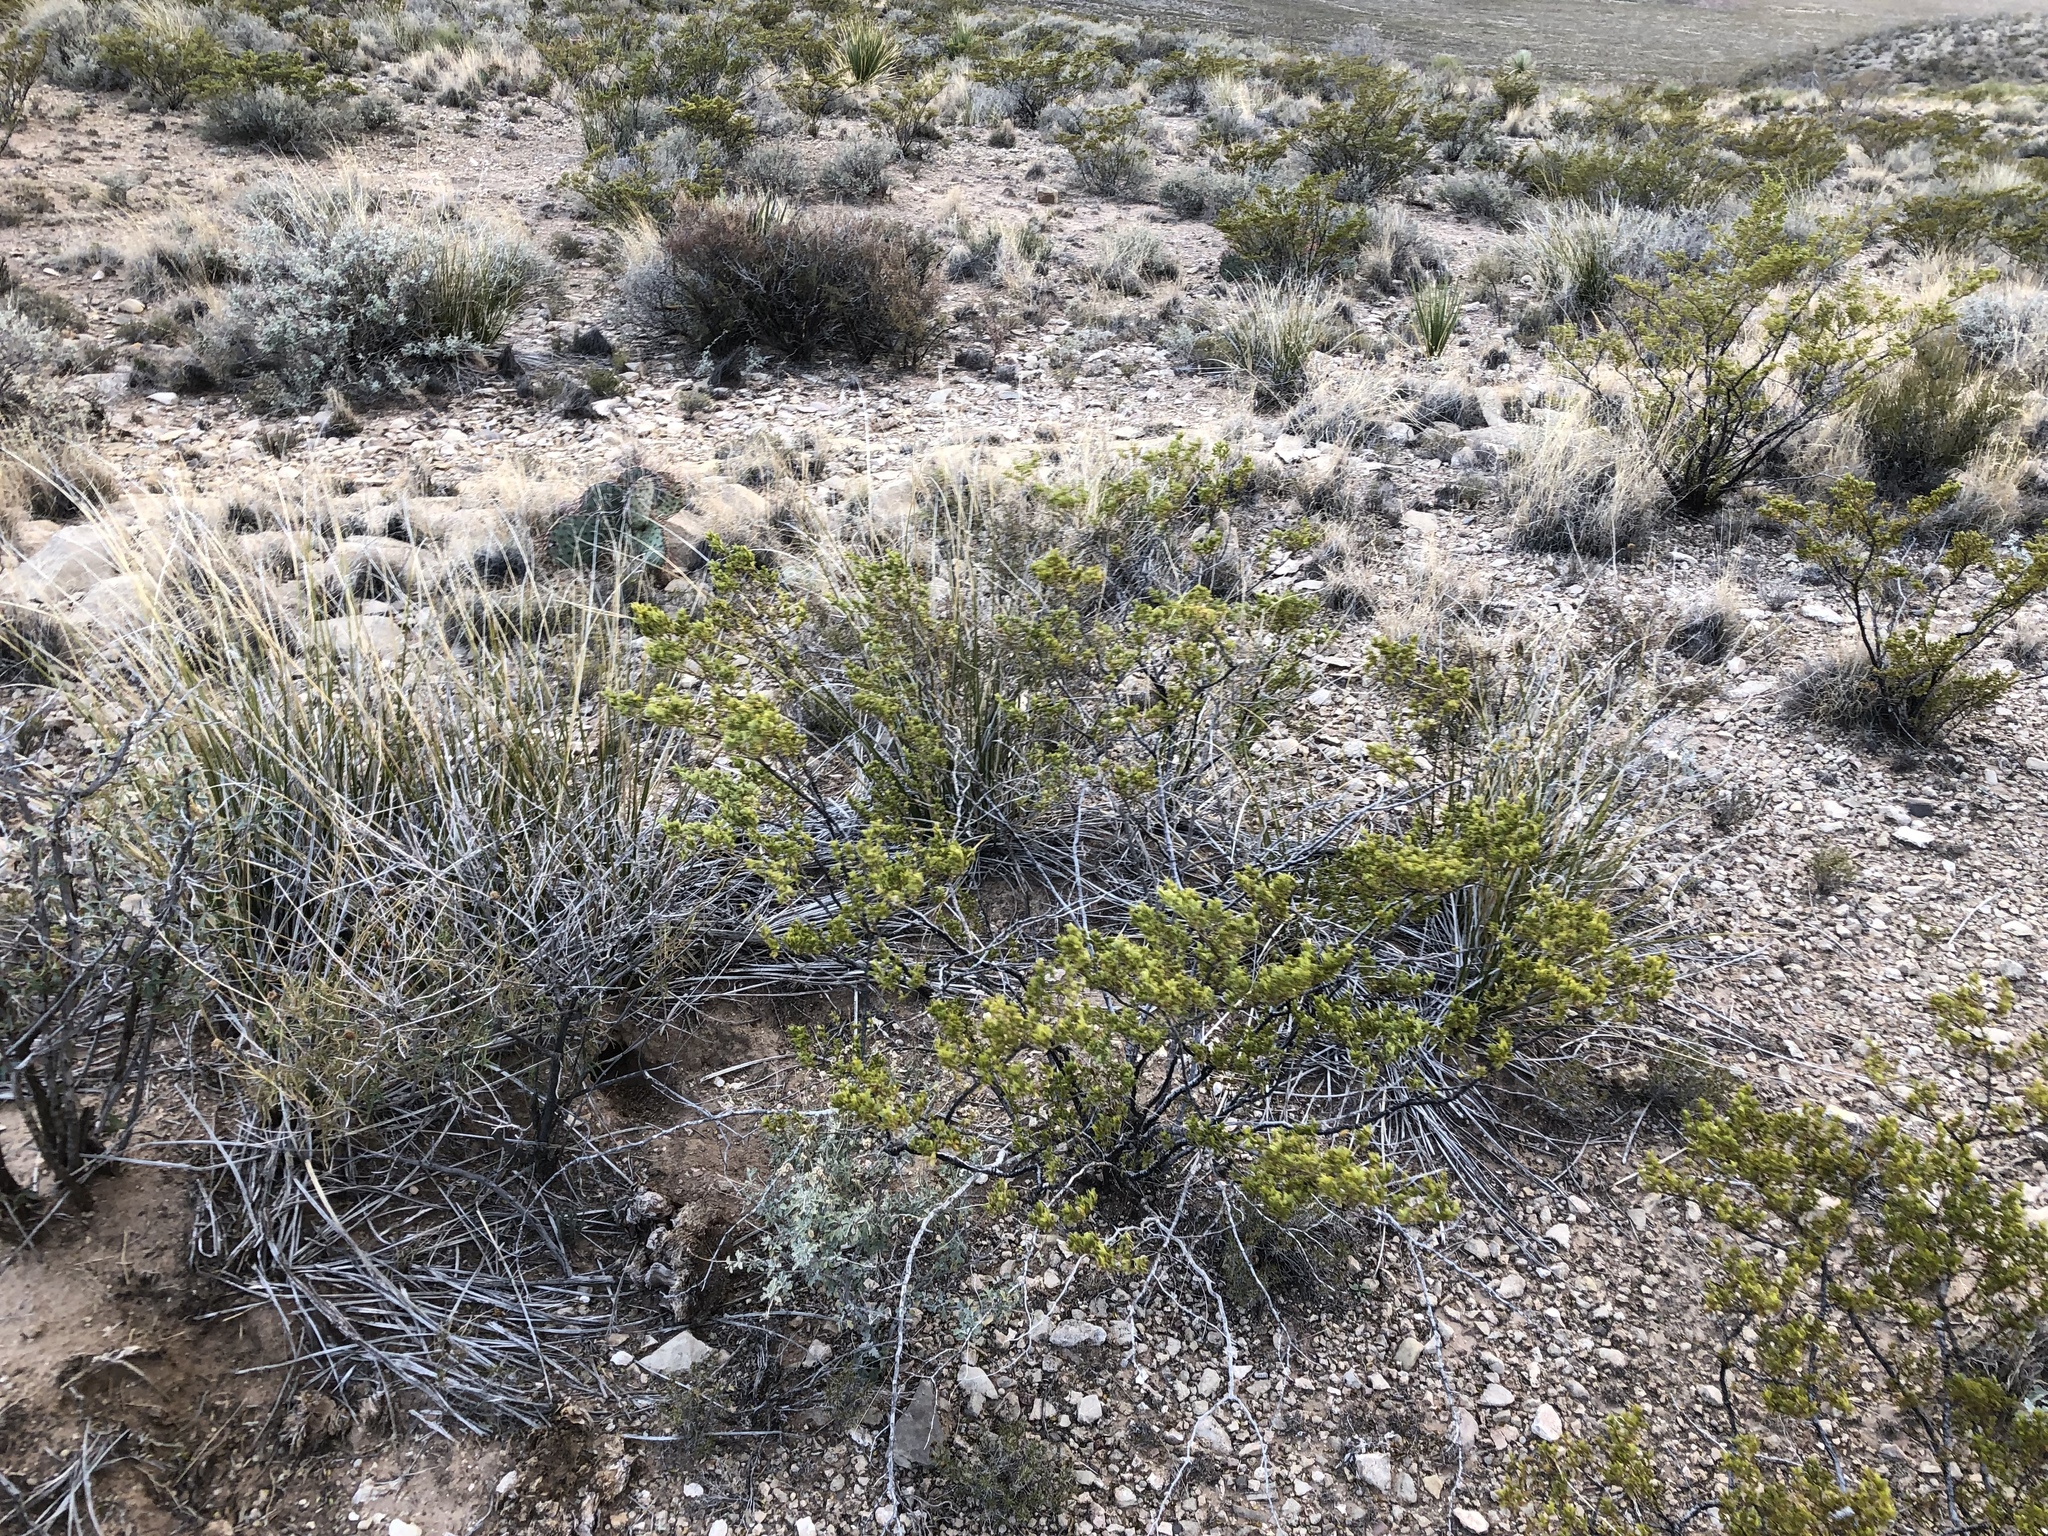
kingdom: Plantae
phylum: Tracheophyta
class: Magnoliopsida
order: Zygophyllales
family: Zygophyllaceae
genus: Larrea
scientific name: Larrea tridentata
